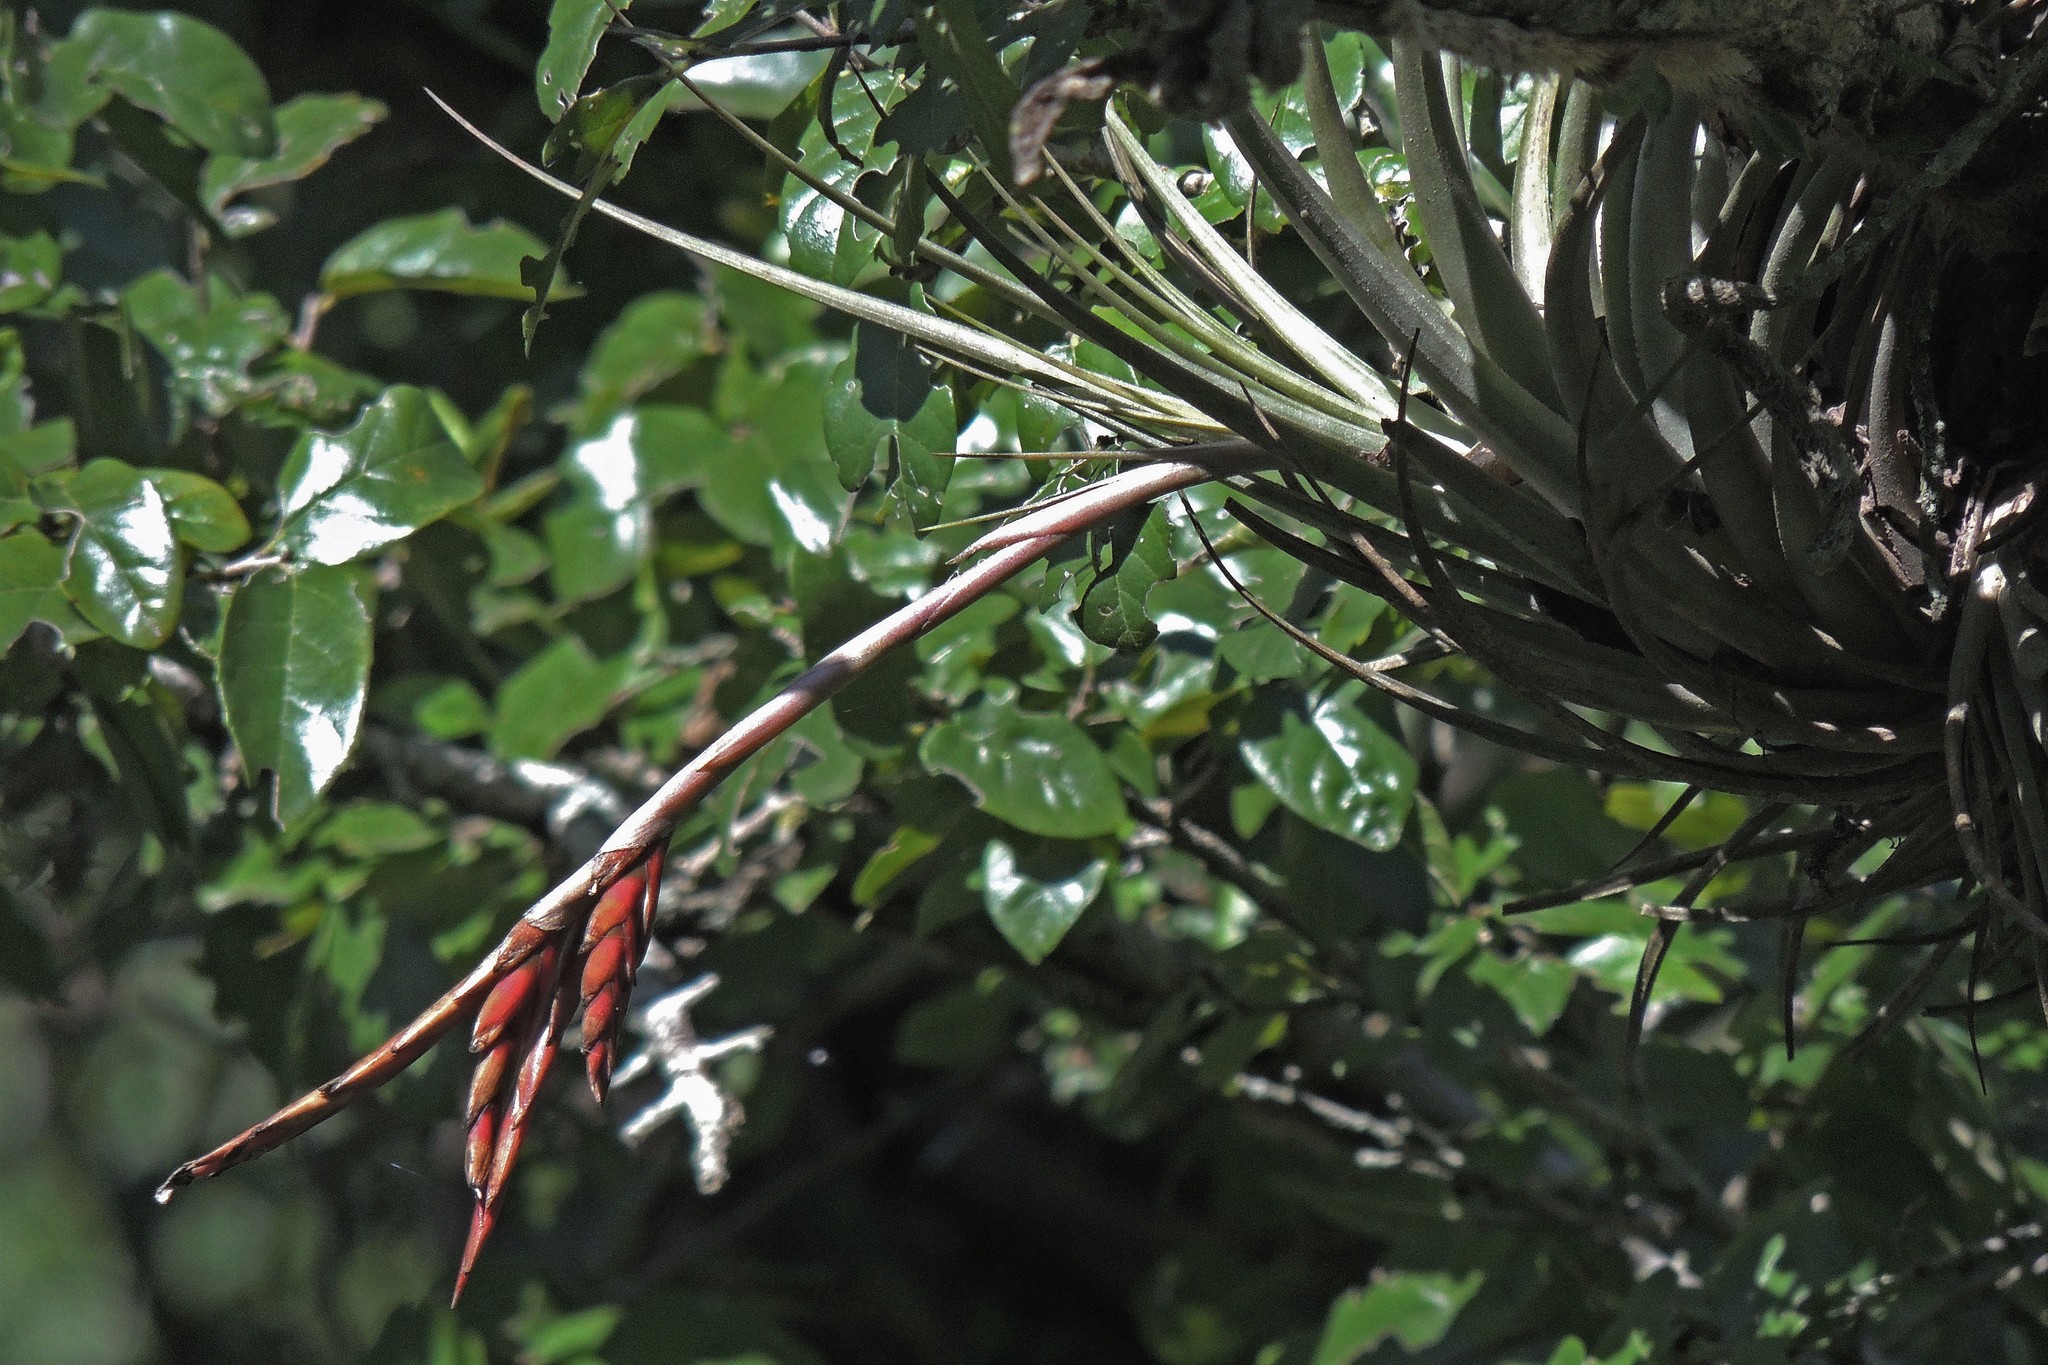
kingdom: Plantae
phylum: Tracheophyta
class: Liliopsida
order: Poales
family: Bromeliaceae
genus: Tillandsia
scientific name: Tillandsia vernicosa
